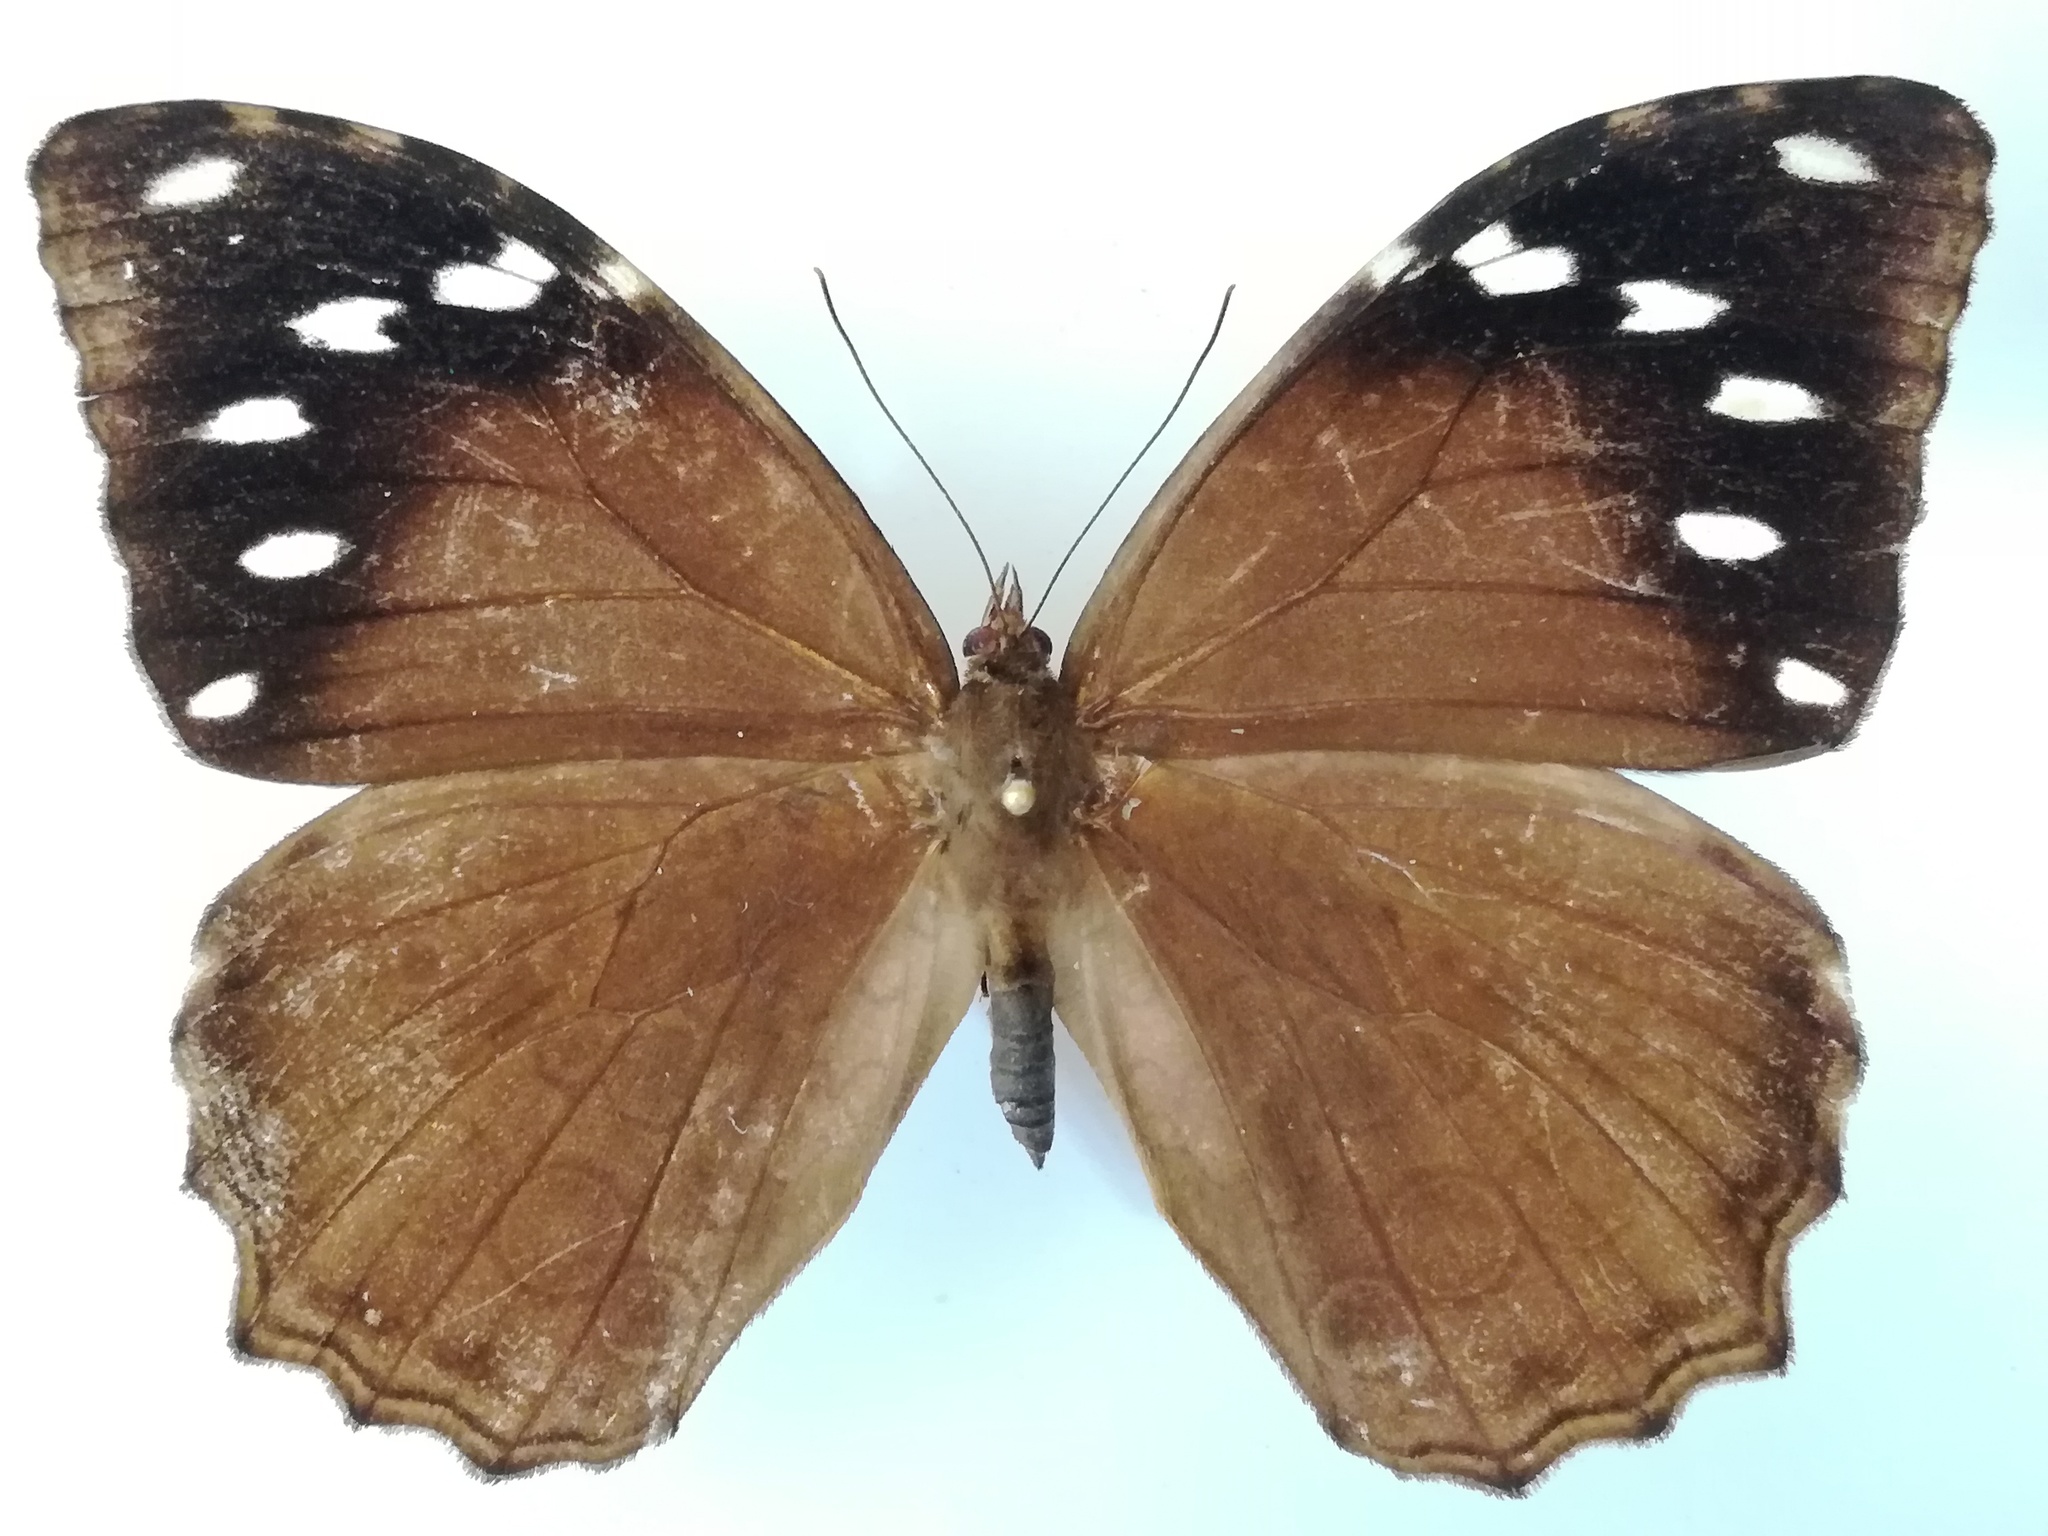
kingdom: Animalia
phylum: Arthropoda
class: Insecta
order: Lepidoptera
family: Nymphalidae
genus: Manataria
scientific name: Manataria maculata
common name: White-spotted satyr
